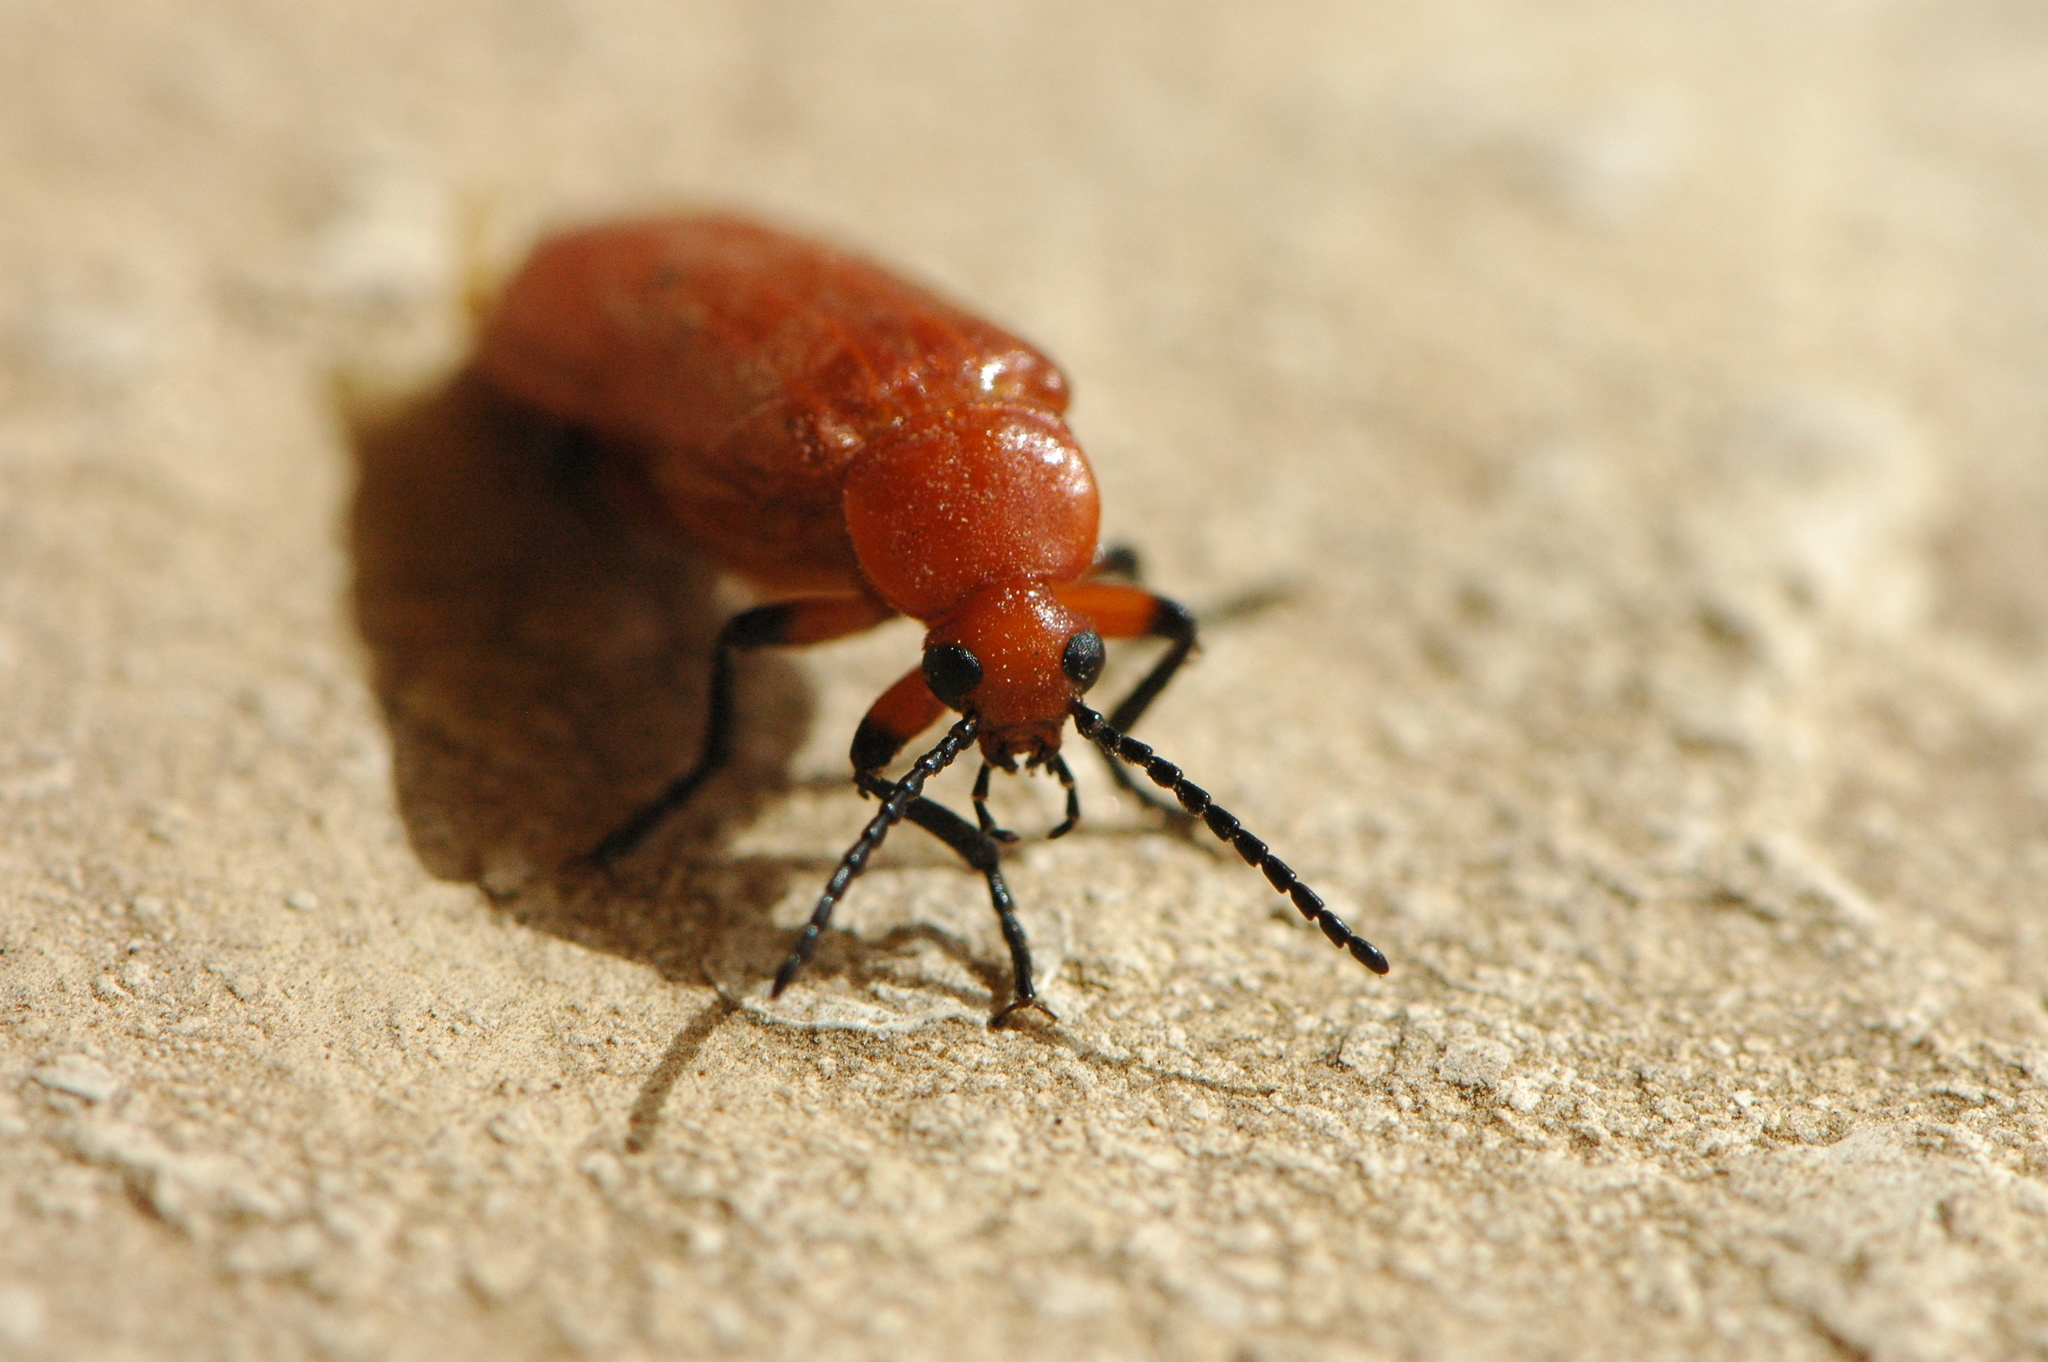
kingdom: Animalia
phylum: Arthropoda
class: Insecta
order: Coleoptera
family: Meloidae
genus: Synhoria
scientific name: Synhoria
